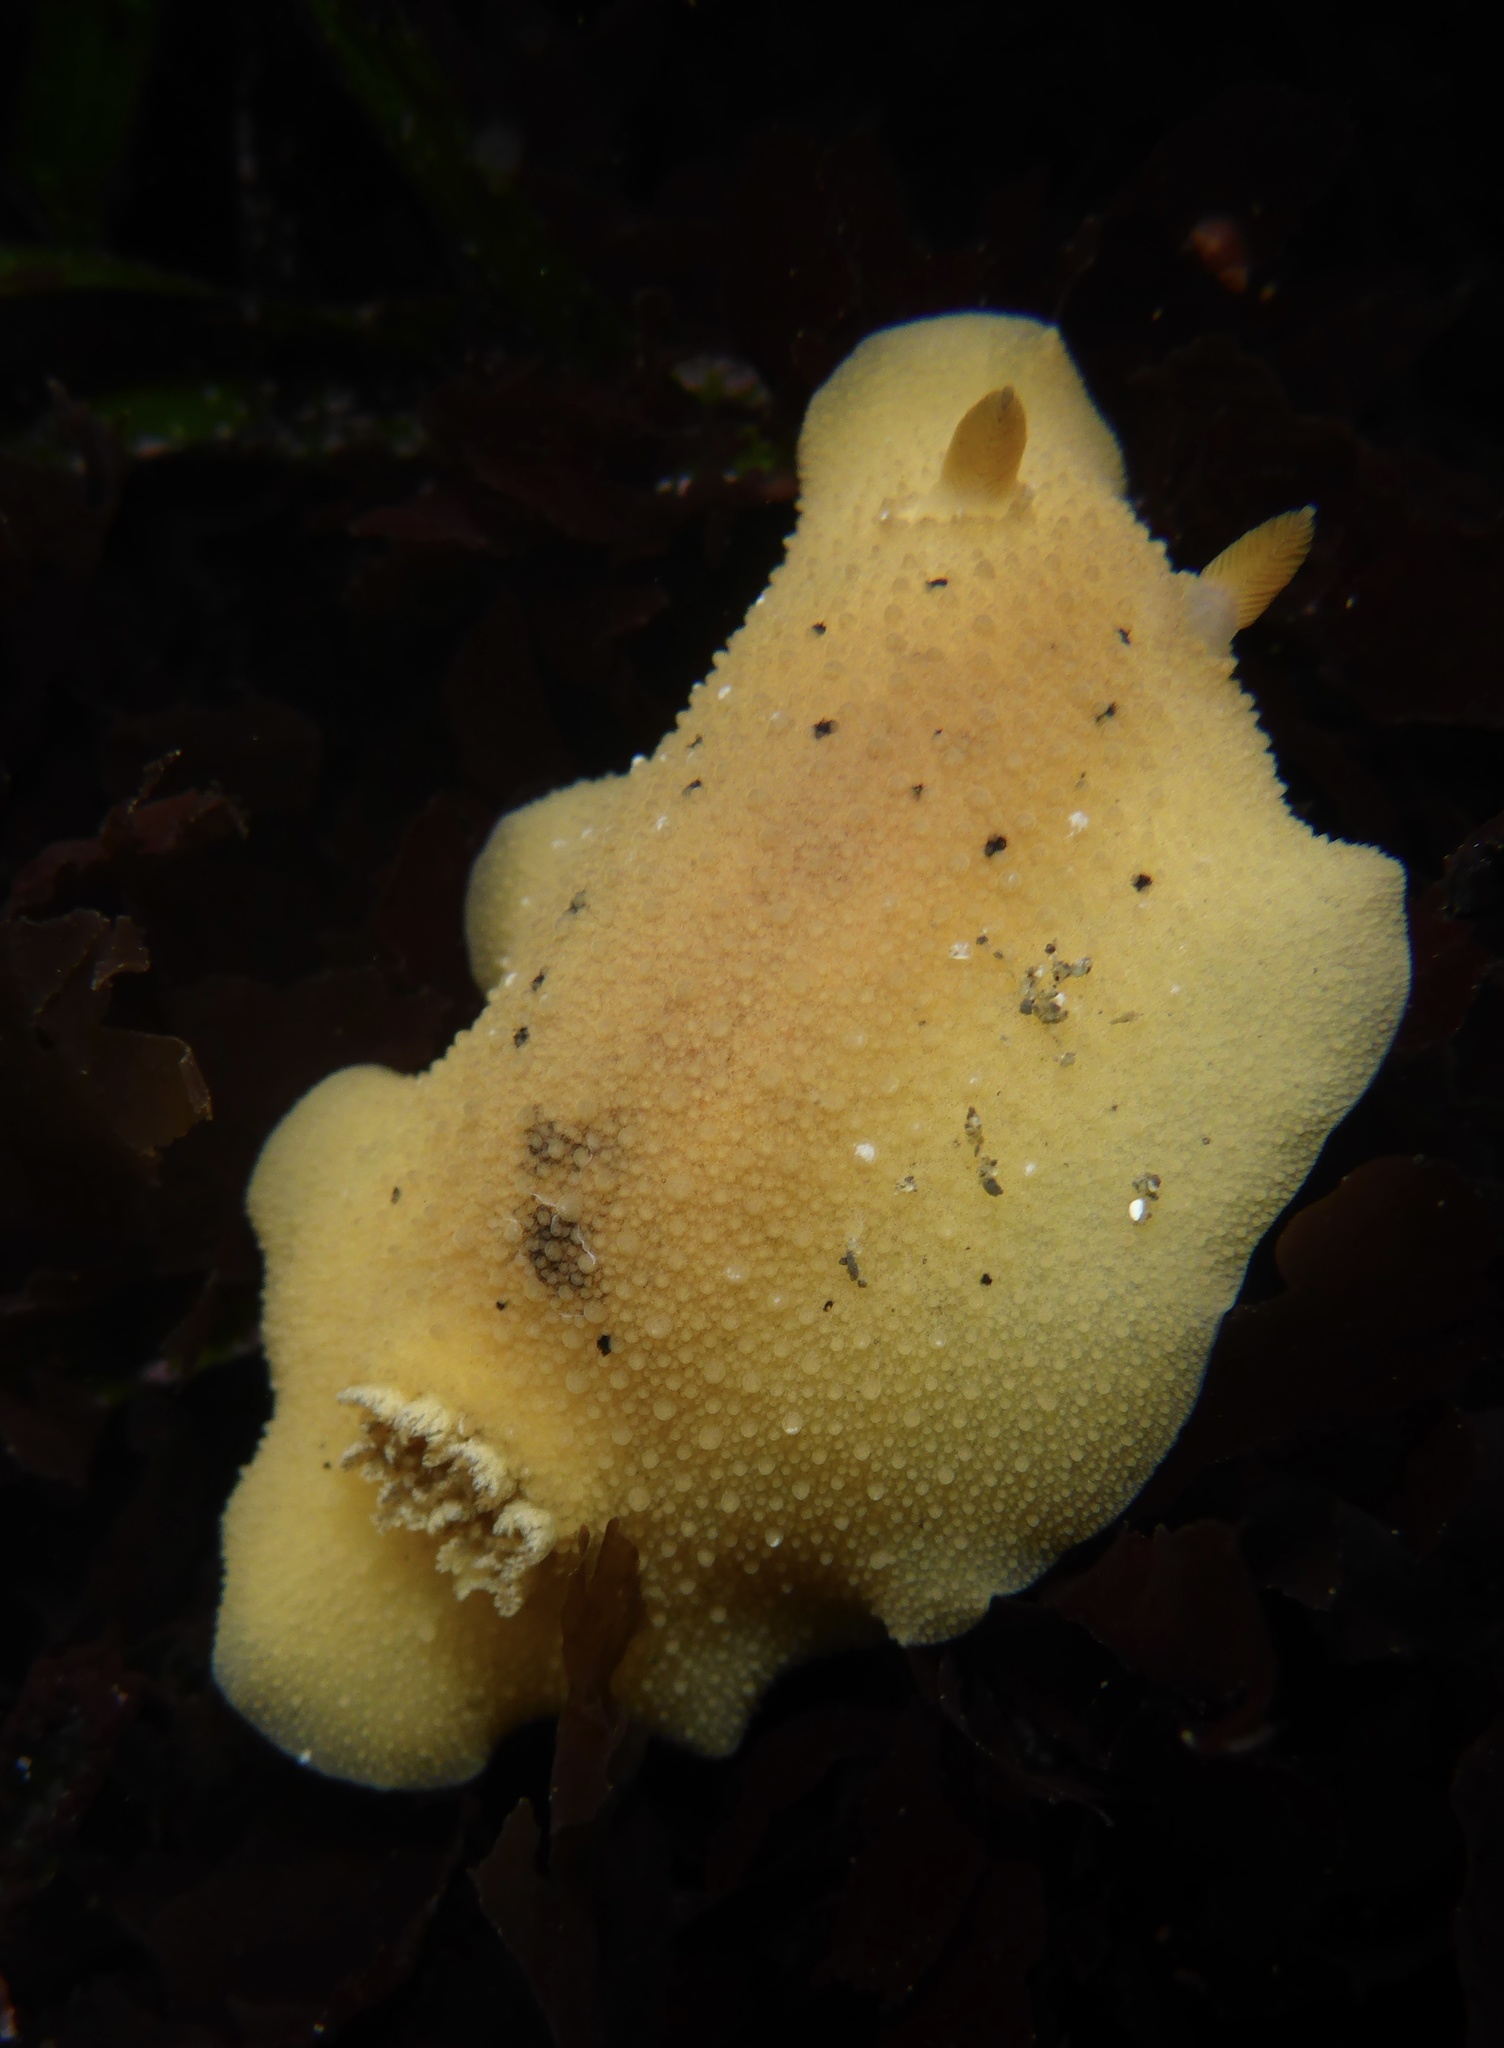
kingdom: Animalia
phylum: Mollusca
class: Gastropoda
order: Nudibranchia
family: Discodorididae
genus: Geitodoris
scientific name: Geitodoris heathi
